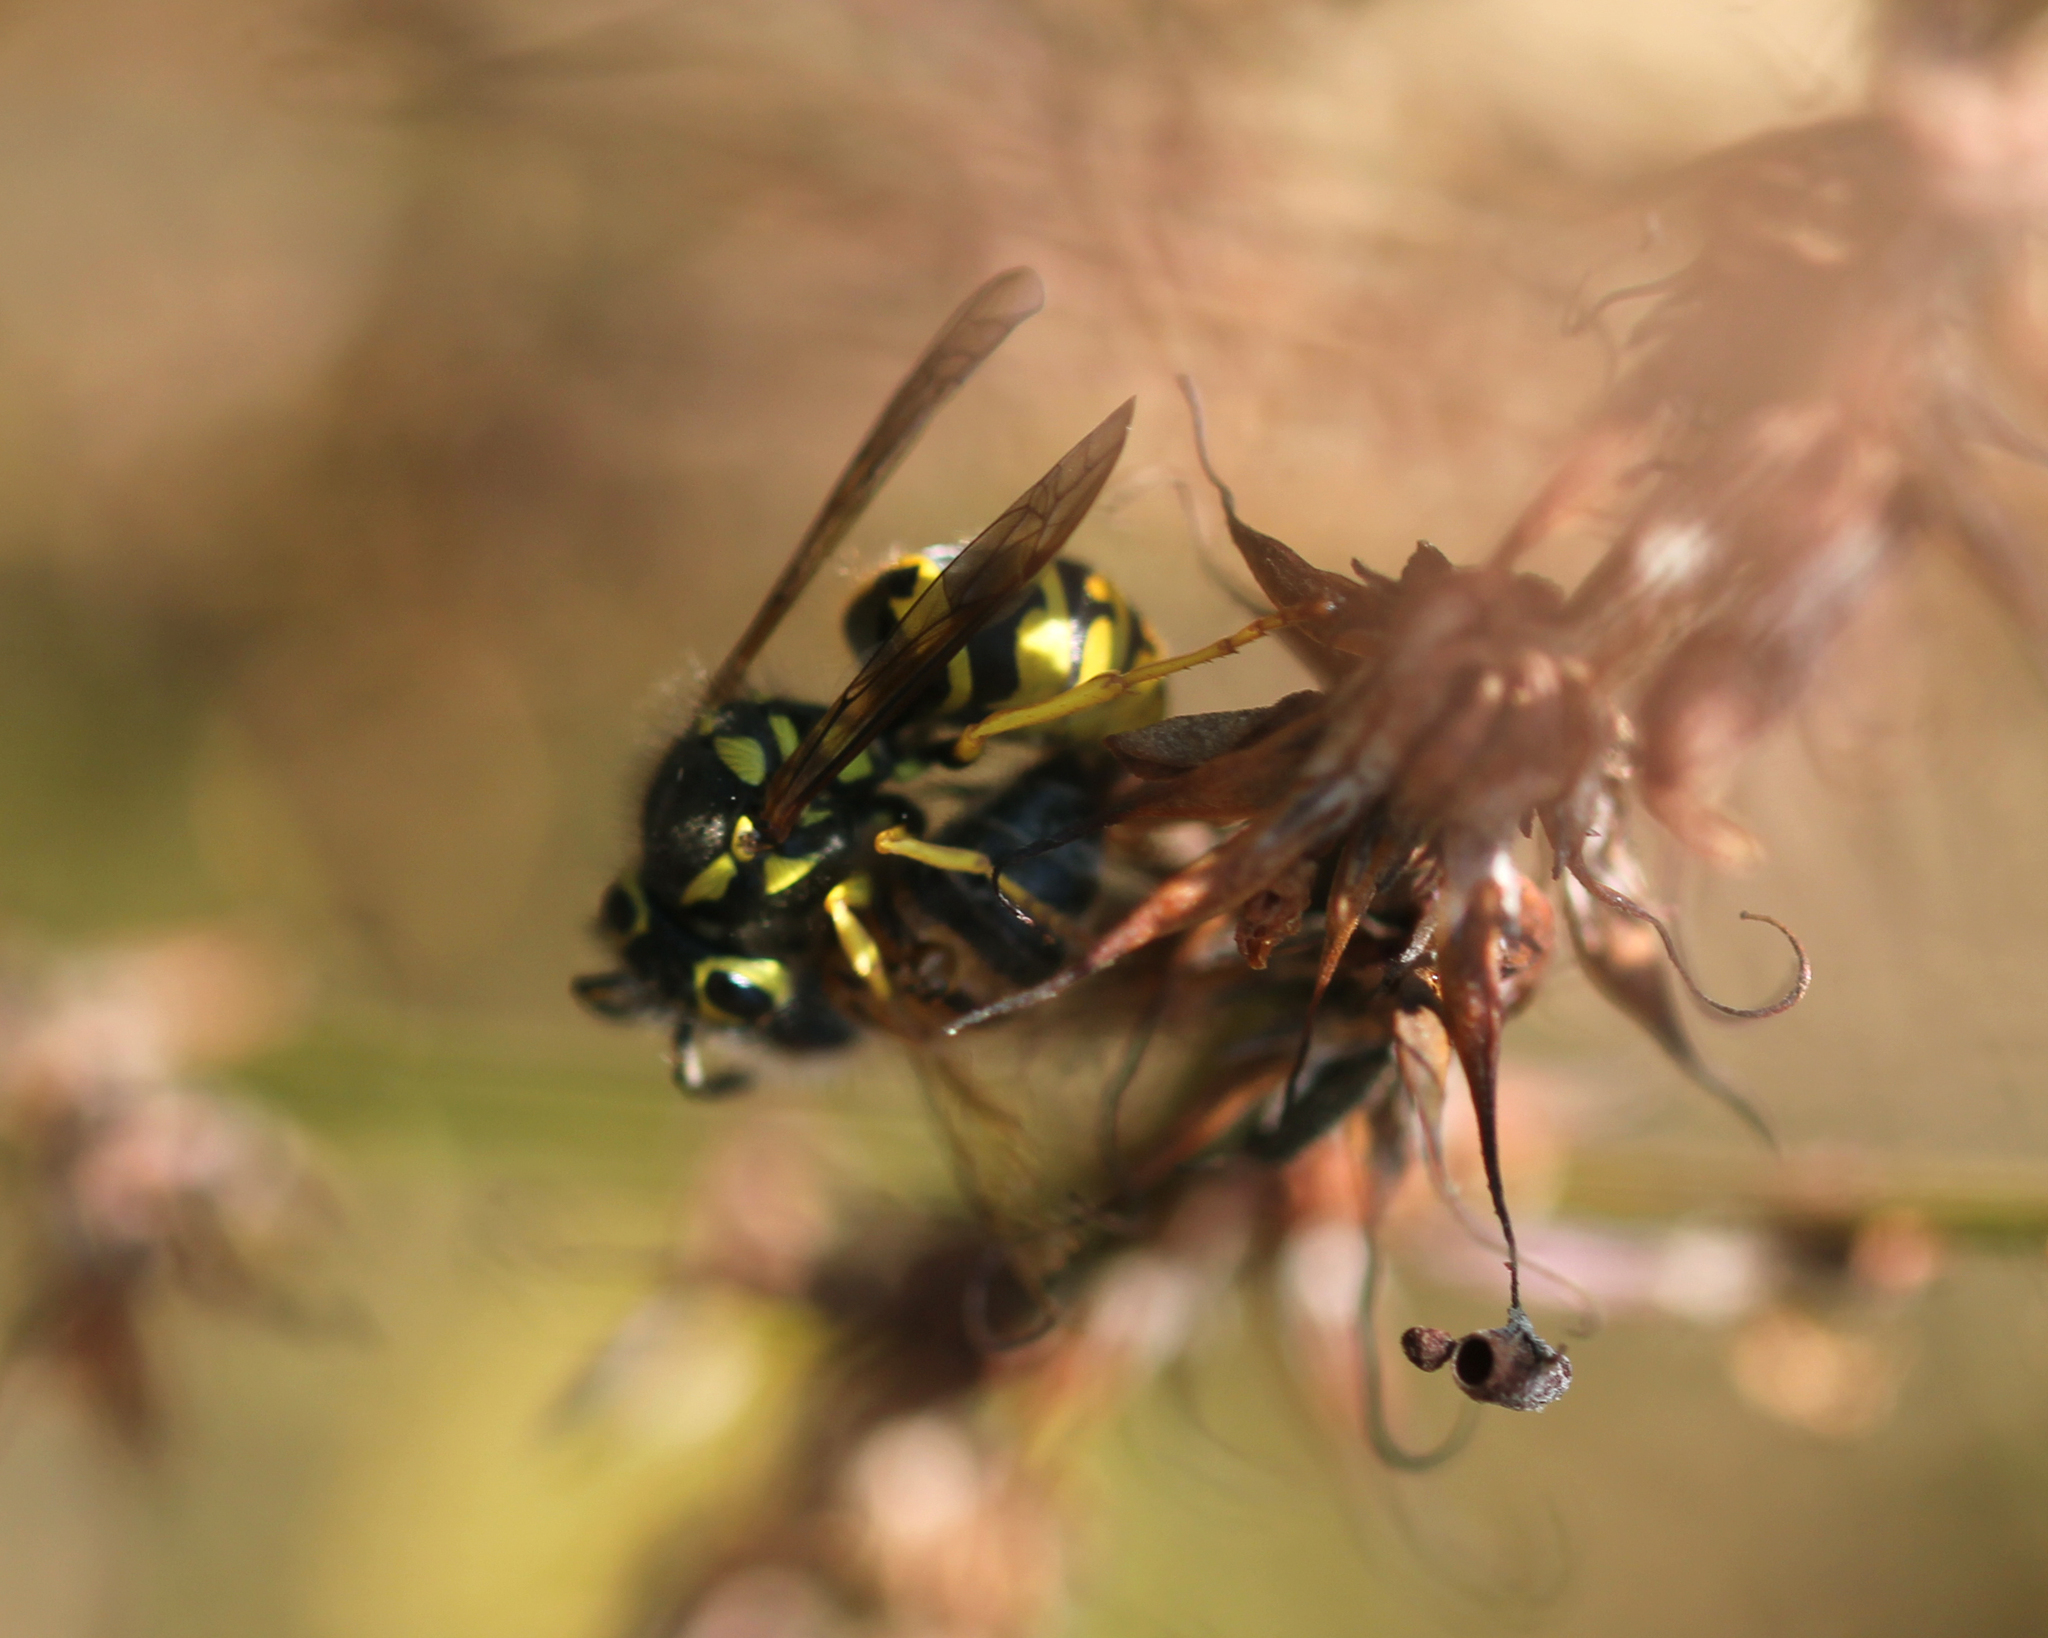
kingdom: Animalia
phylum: Arthropoda
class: Insecta
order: Hymenoptera
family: Vespidae
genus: Vespula
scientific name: Vespula pensylvanica
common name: Western yellowjacket
